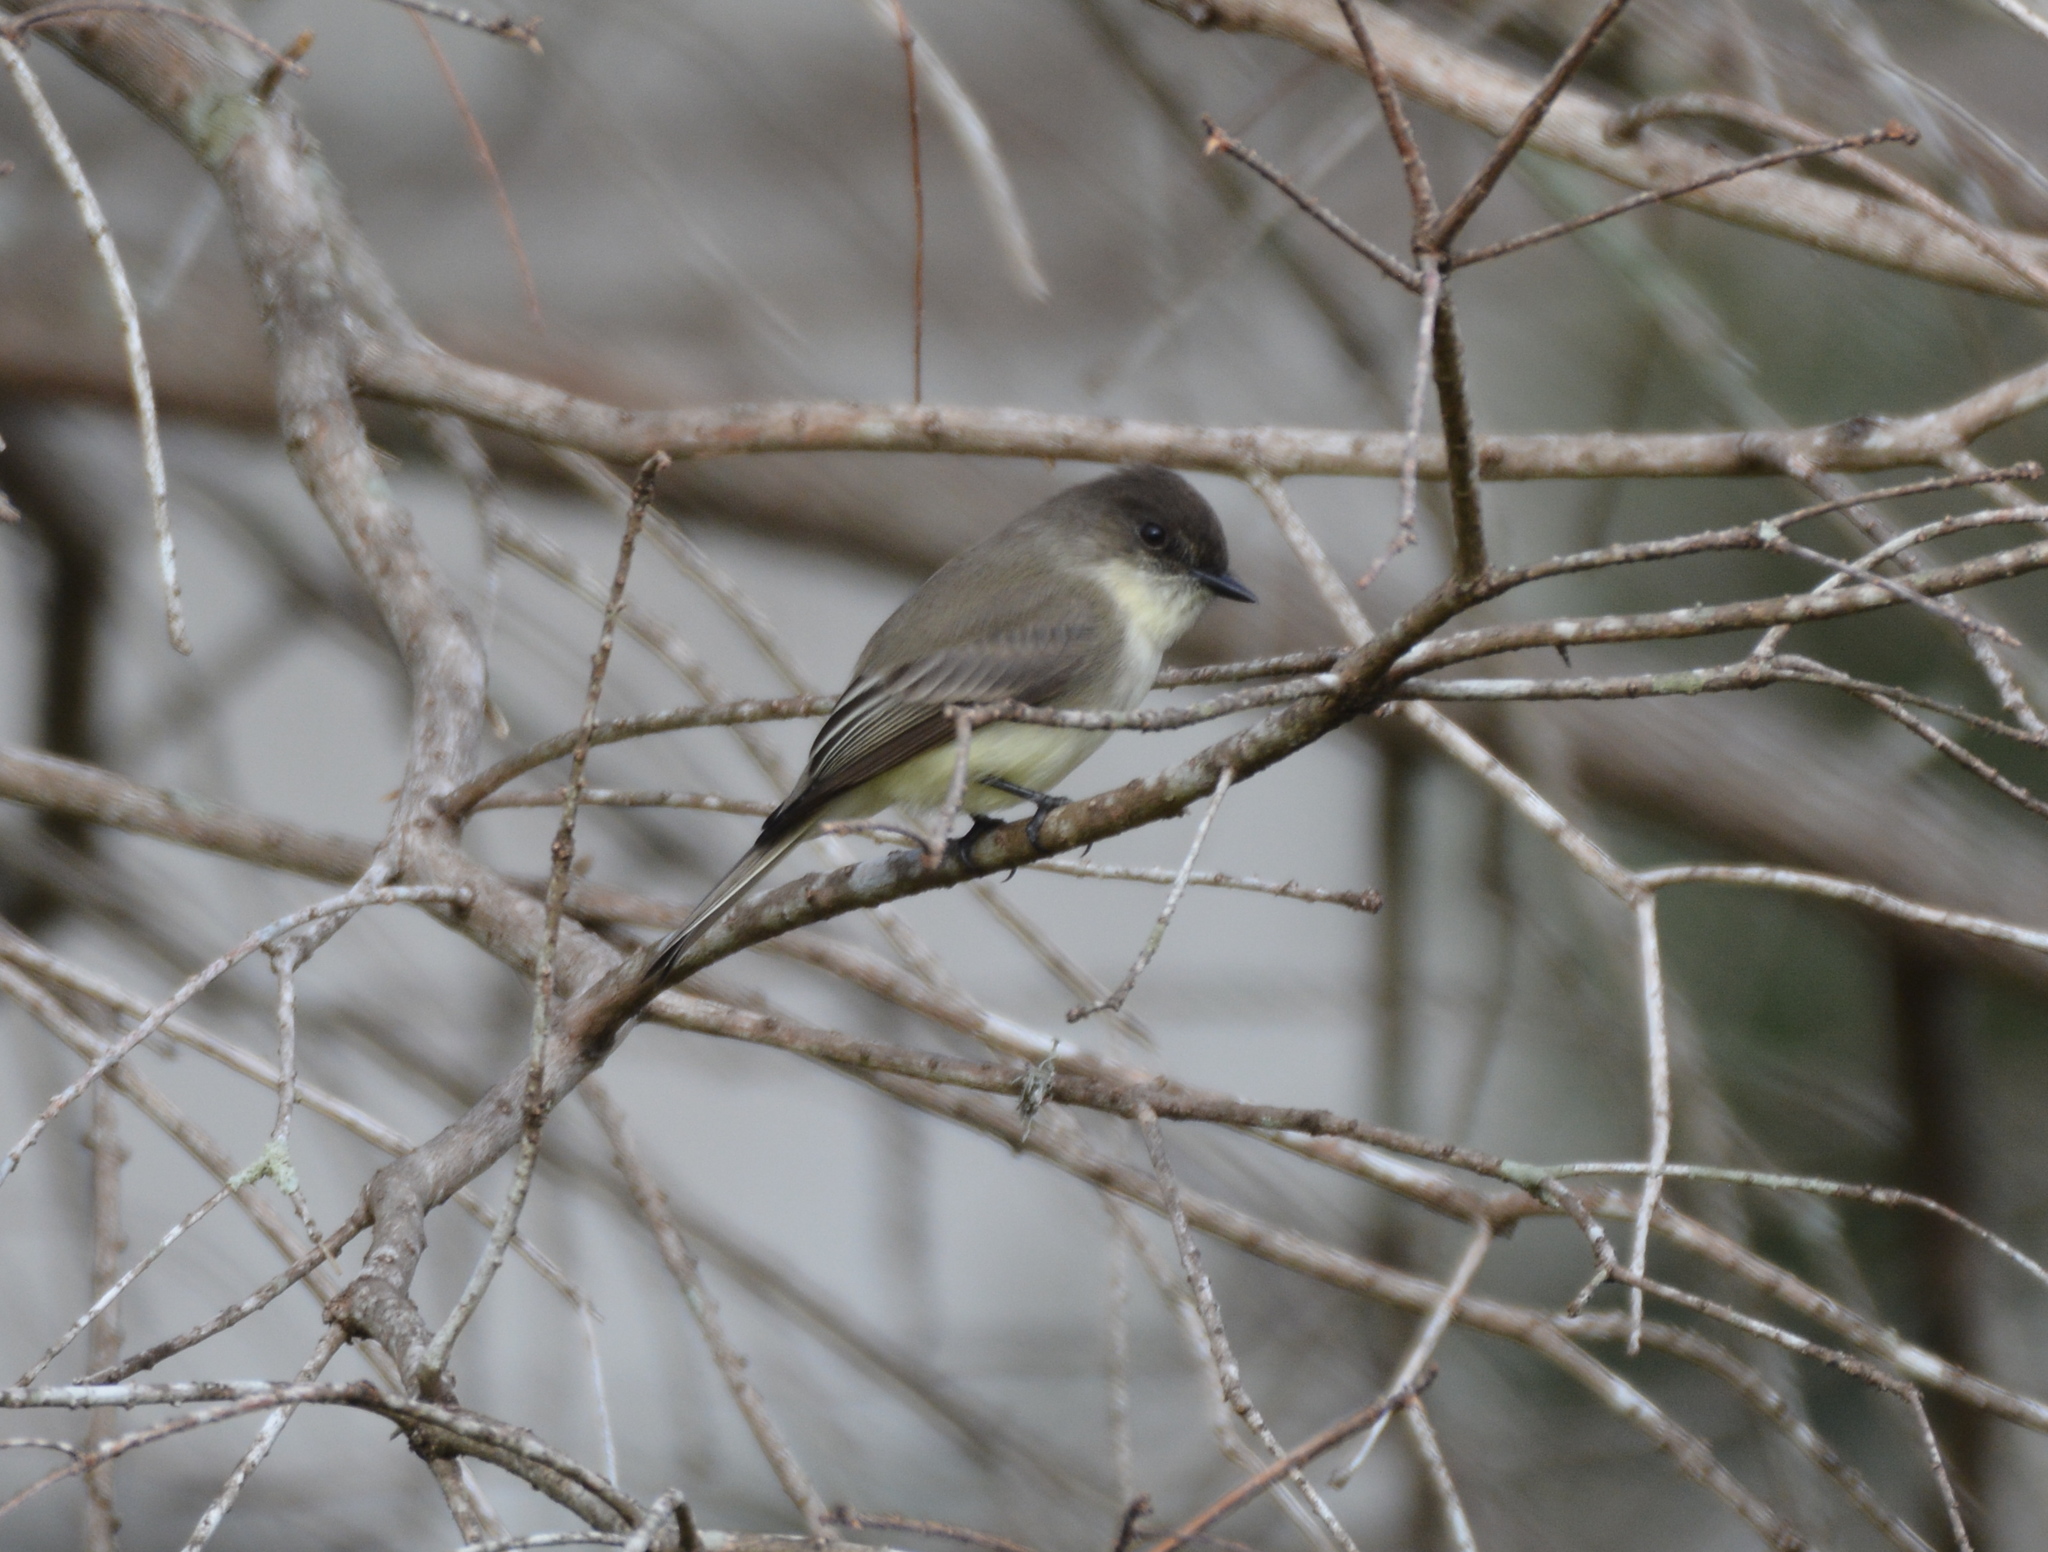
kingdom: Animalia
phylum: Chordata
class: Aves
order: Passeriformes
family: Tyrannidae
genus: Sayornis
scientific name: Sayornis phoebe
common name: Eastern phoebe
